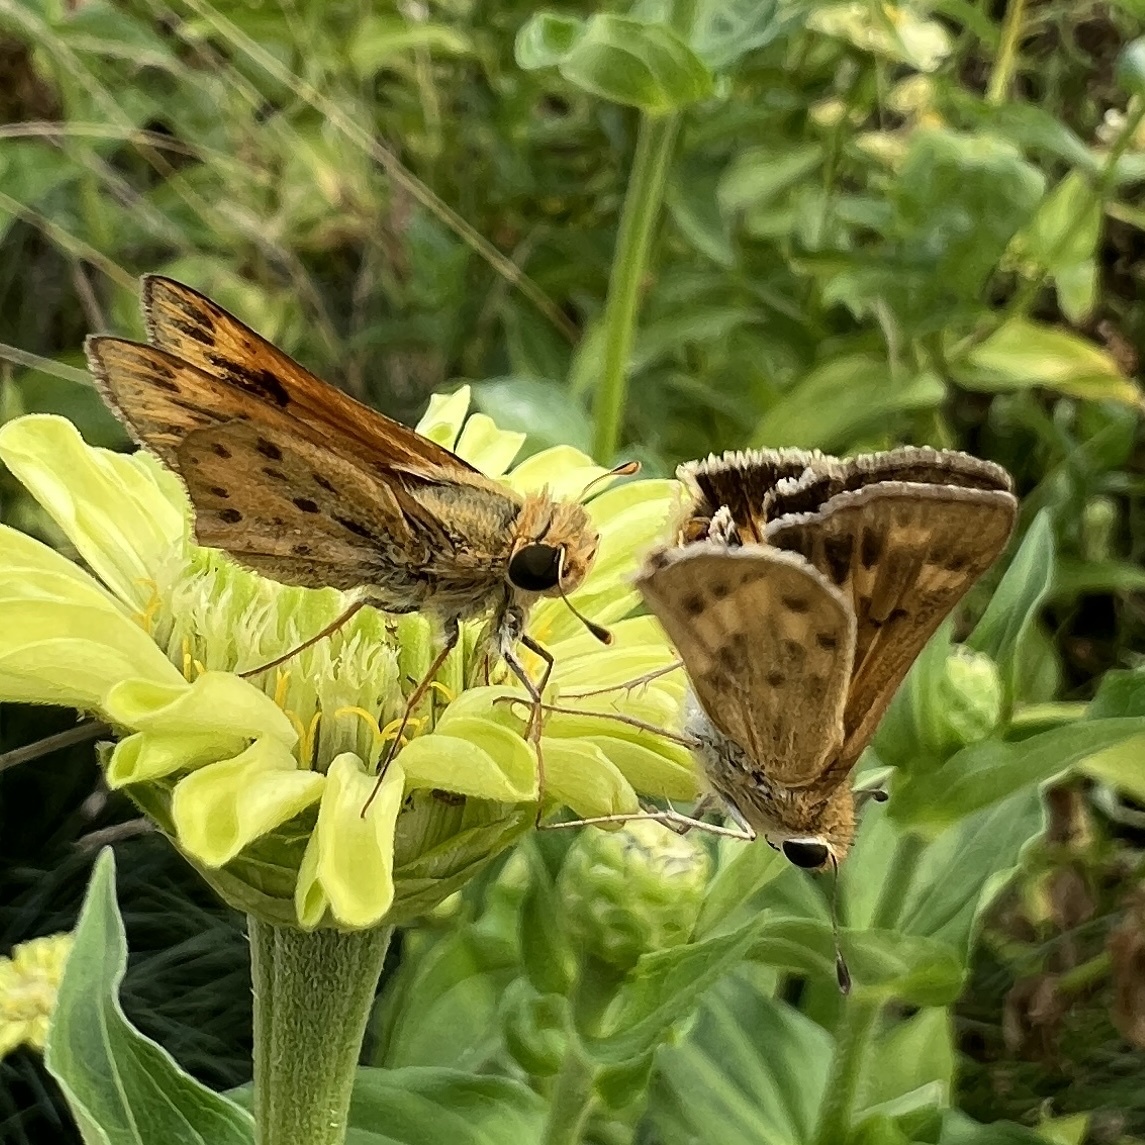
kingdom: Animalia
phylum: Arthropoda
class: Insecta
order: Lepidoptera
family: Hesperiidae
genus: Hylephila
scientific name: Hylephila phyleus
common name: Fiery skipper
